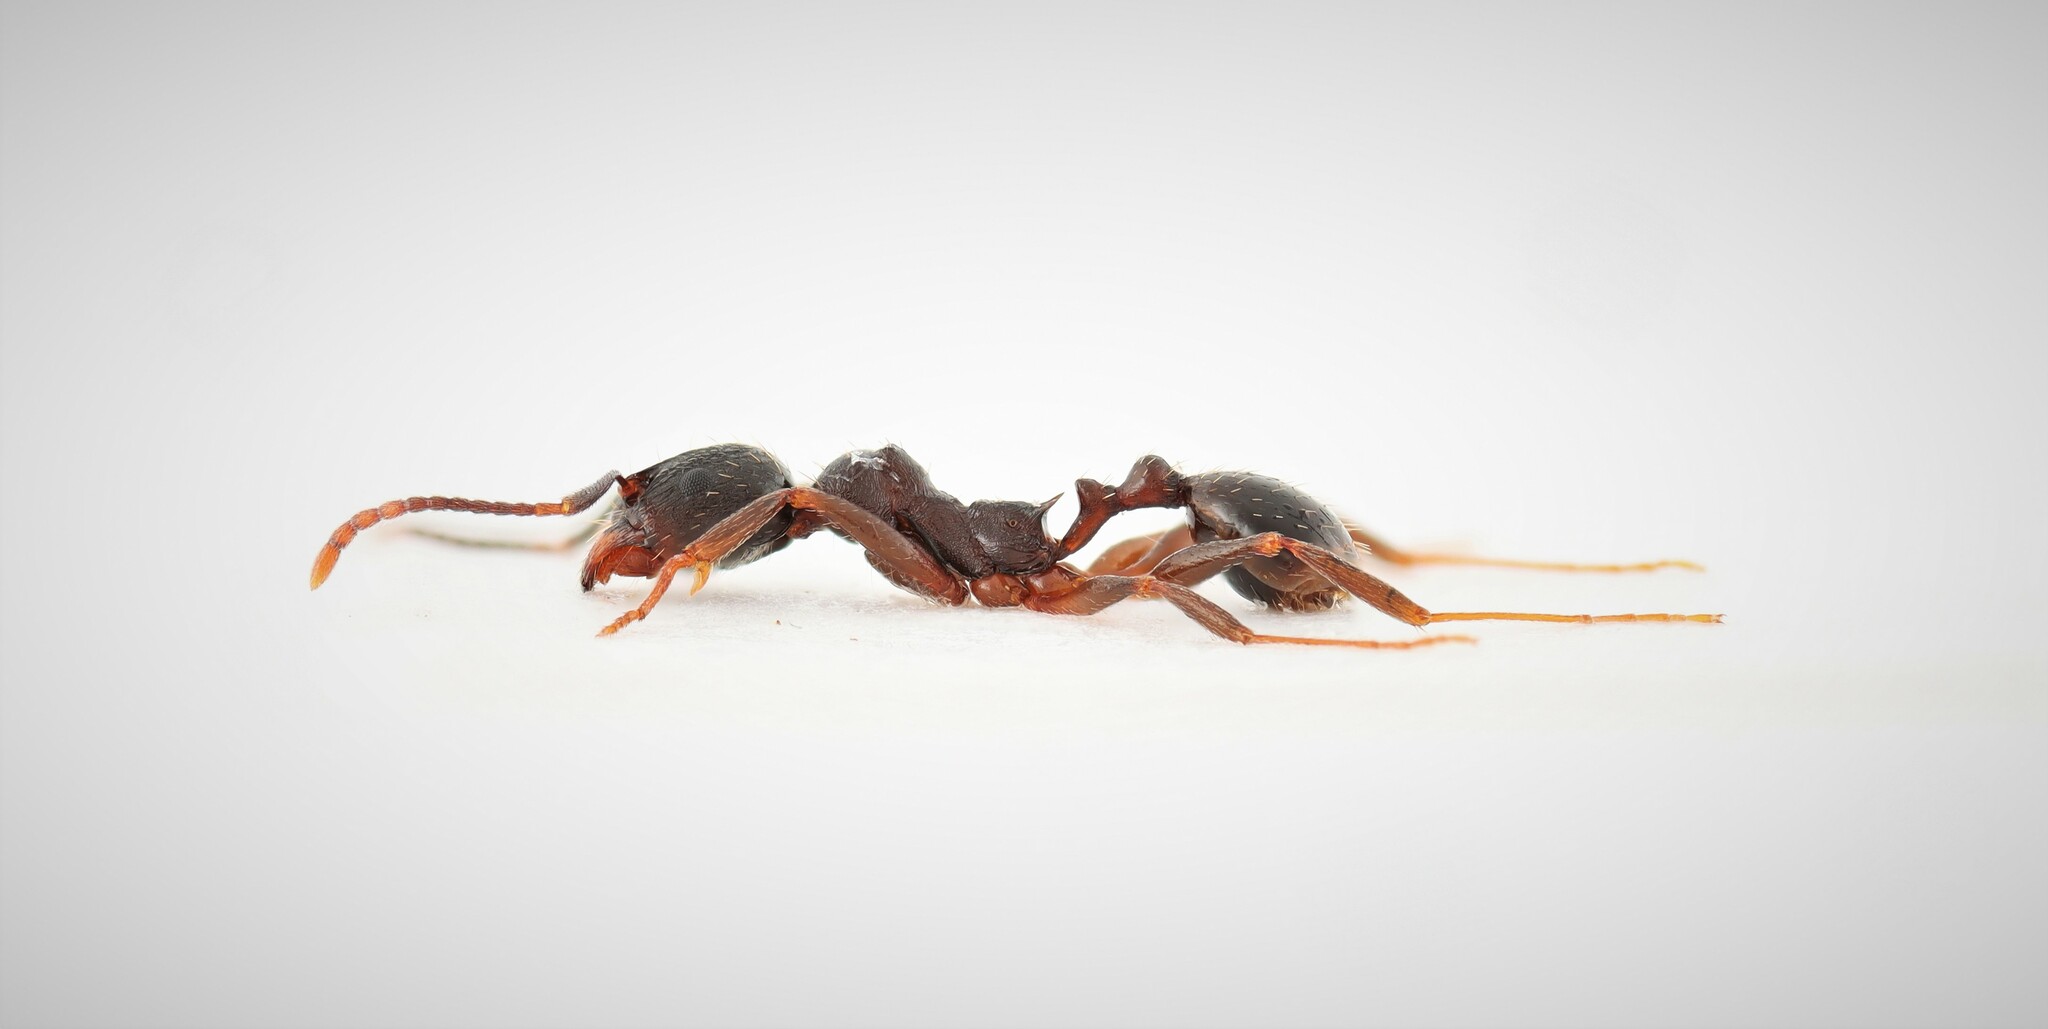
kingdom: Animalia
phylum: Arthropoda
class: Insecta
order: Hymenoptera
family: Formicidae
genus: Aphaenogaster
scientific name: Aphaenogaster picea
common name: Pitch-black collared ant
